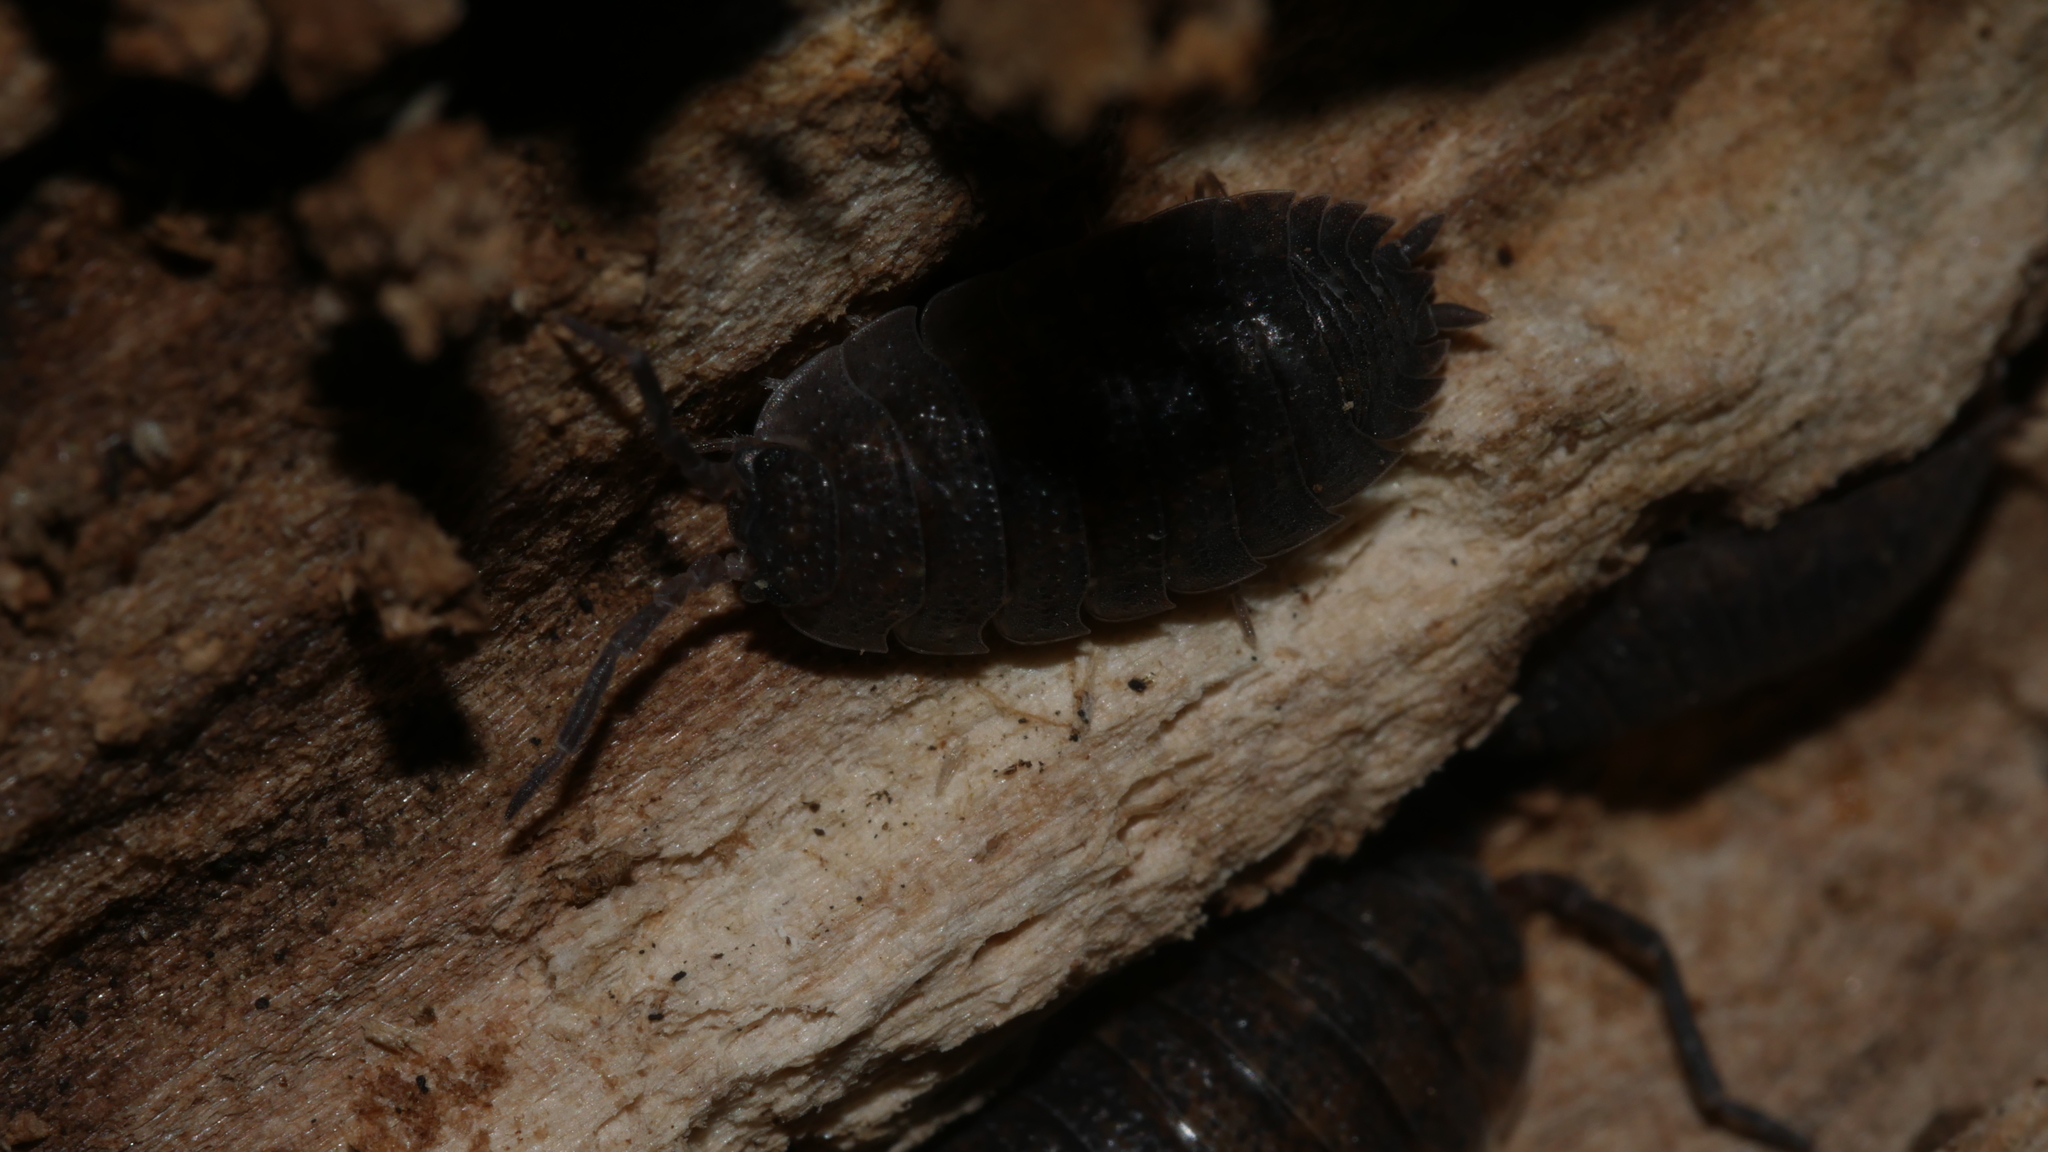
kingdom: Animalia
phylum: Arthropoda
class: Malacostraca
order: Isopoda
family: Porcellionidae
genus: Porcellio
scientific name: Porcellio scaber
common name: Common rough woodlouse
